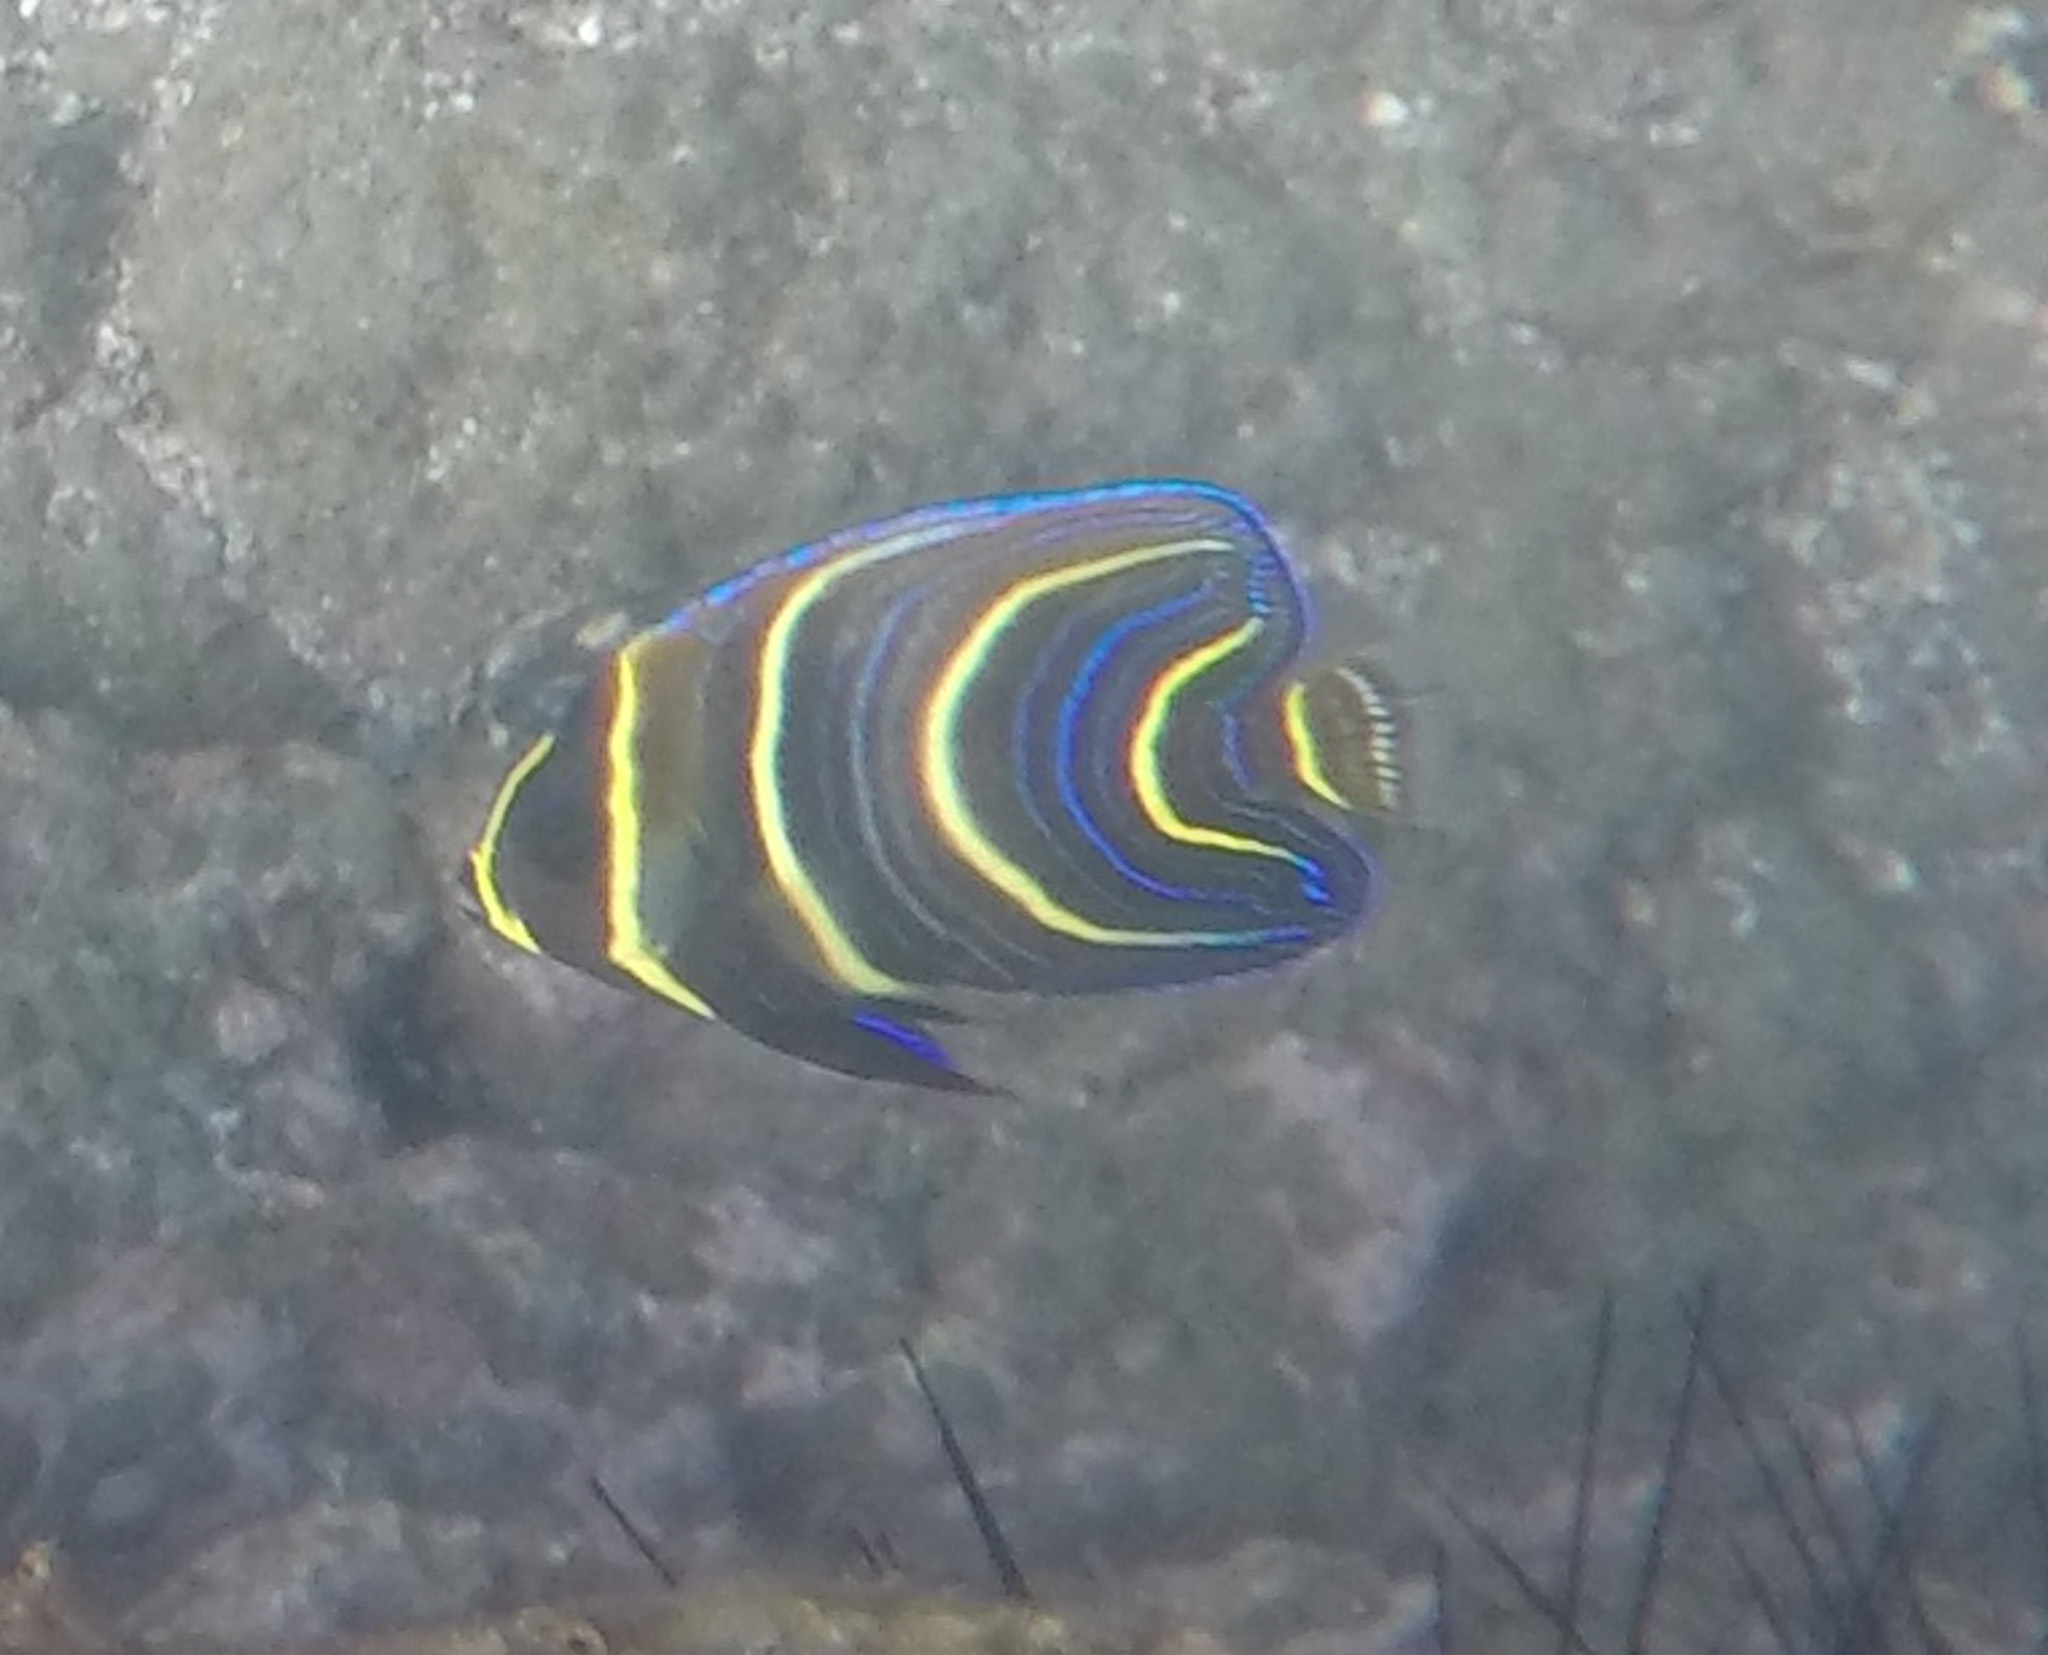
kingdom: Animalia
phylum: Chordata
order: Perciformes
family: Pomacanthidae
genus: Pomacanthus
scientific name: Pomacanthus zonipectus
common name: Cortez angelfish
